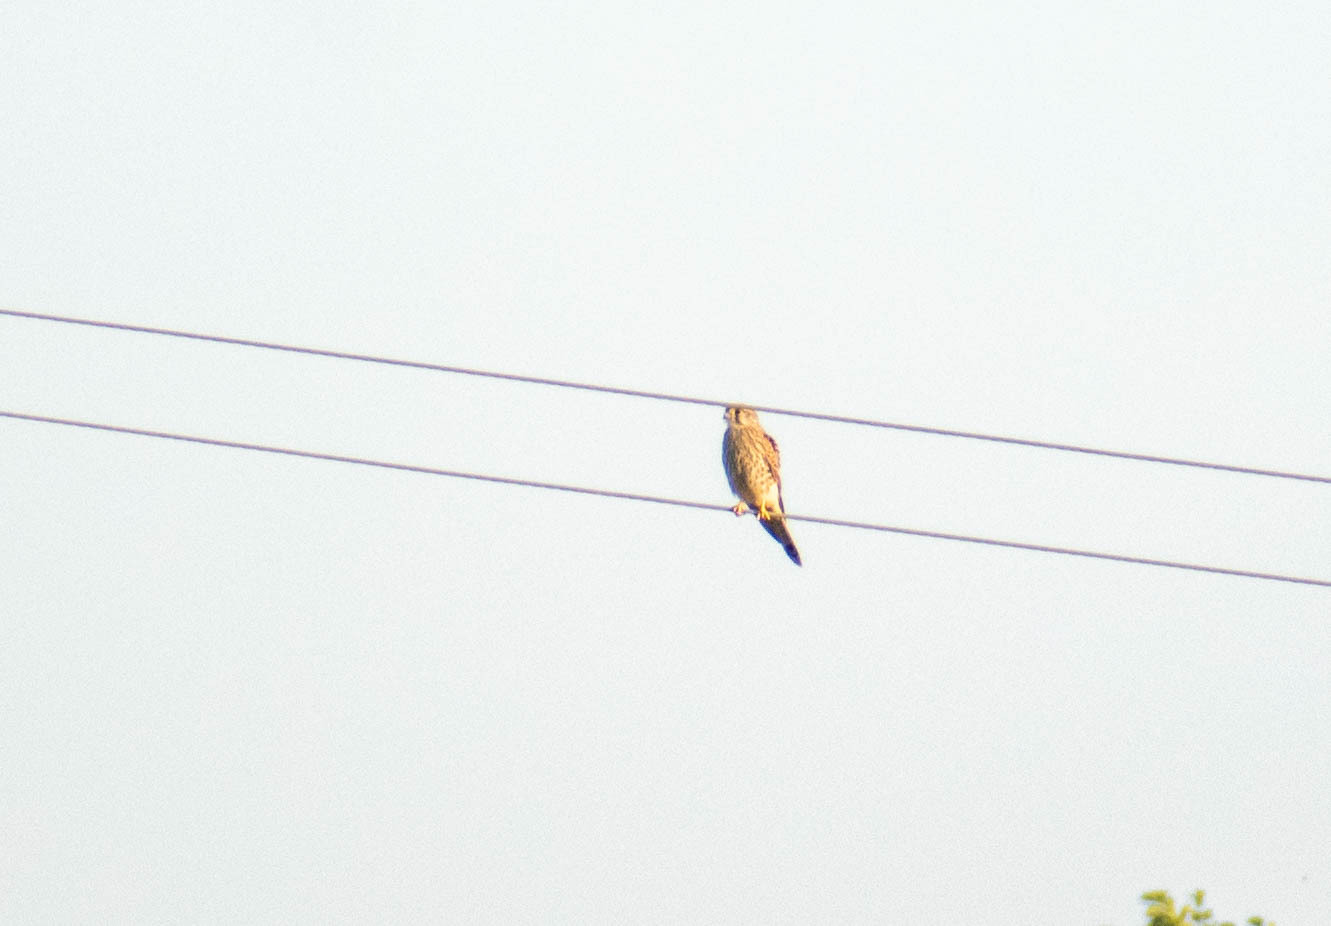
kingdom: Animalia
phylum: Chordata
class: Aves
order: Falconiformes
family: Falconidae
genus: Falco
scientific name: Falco tinnunculus
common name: Common kestrel
